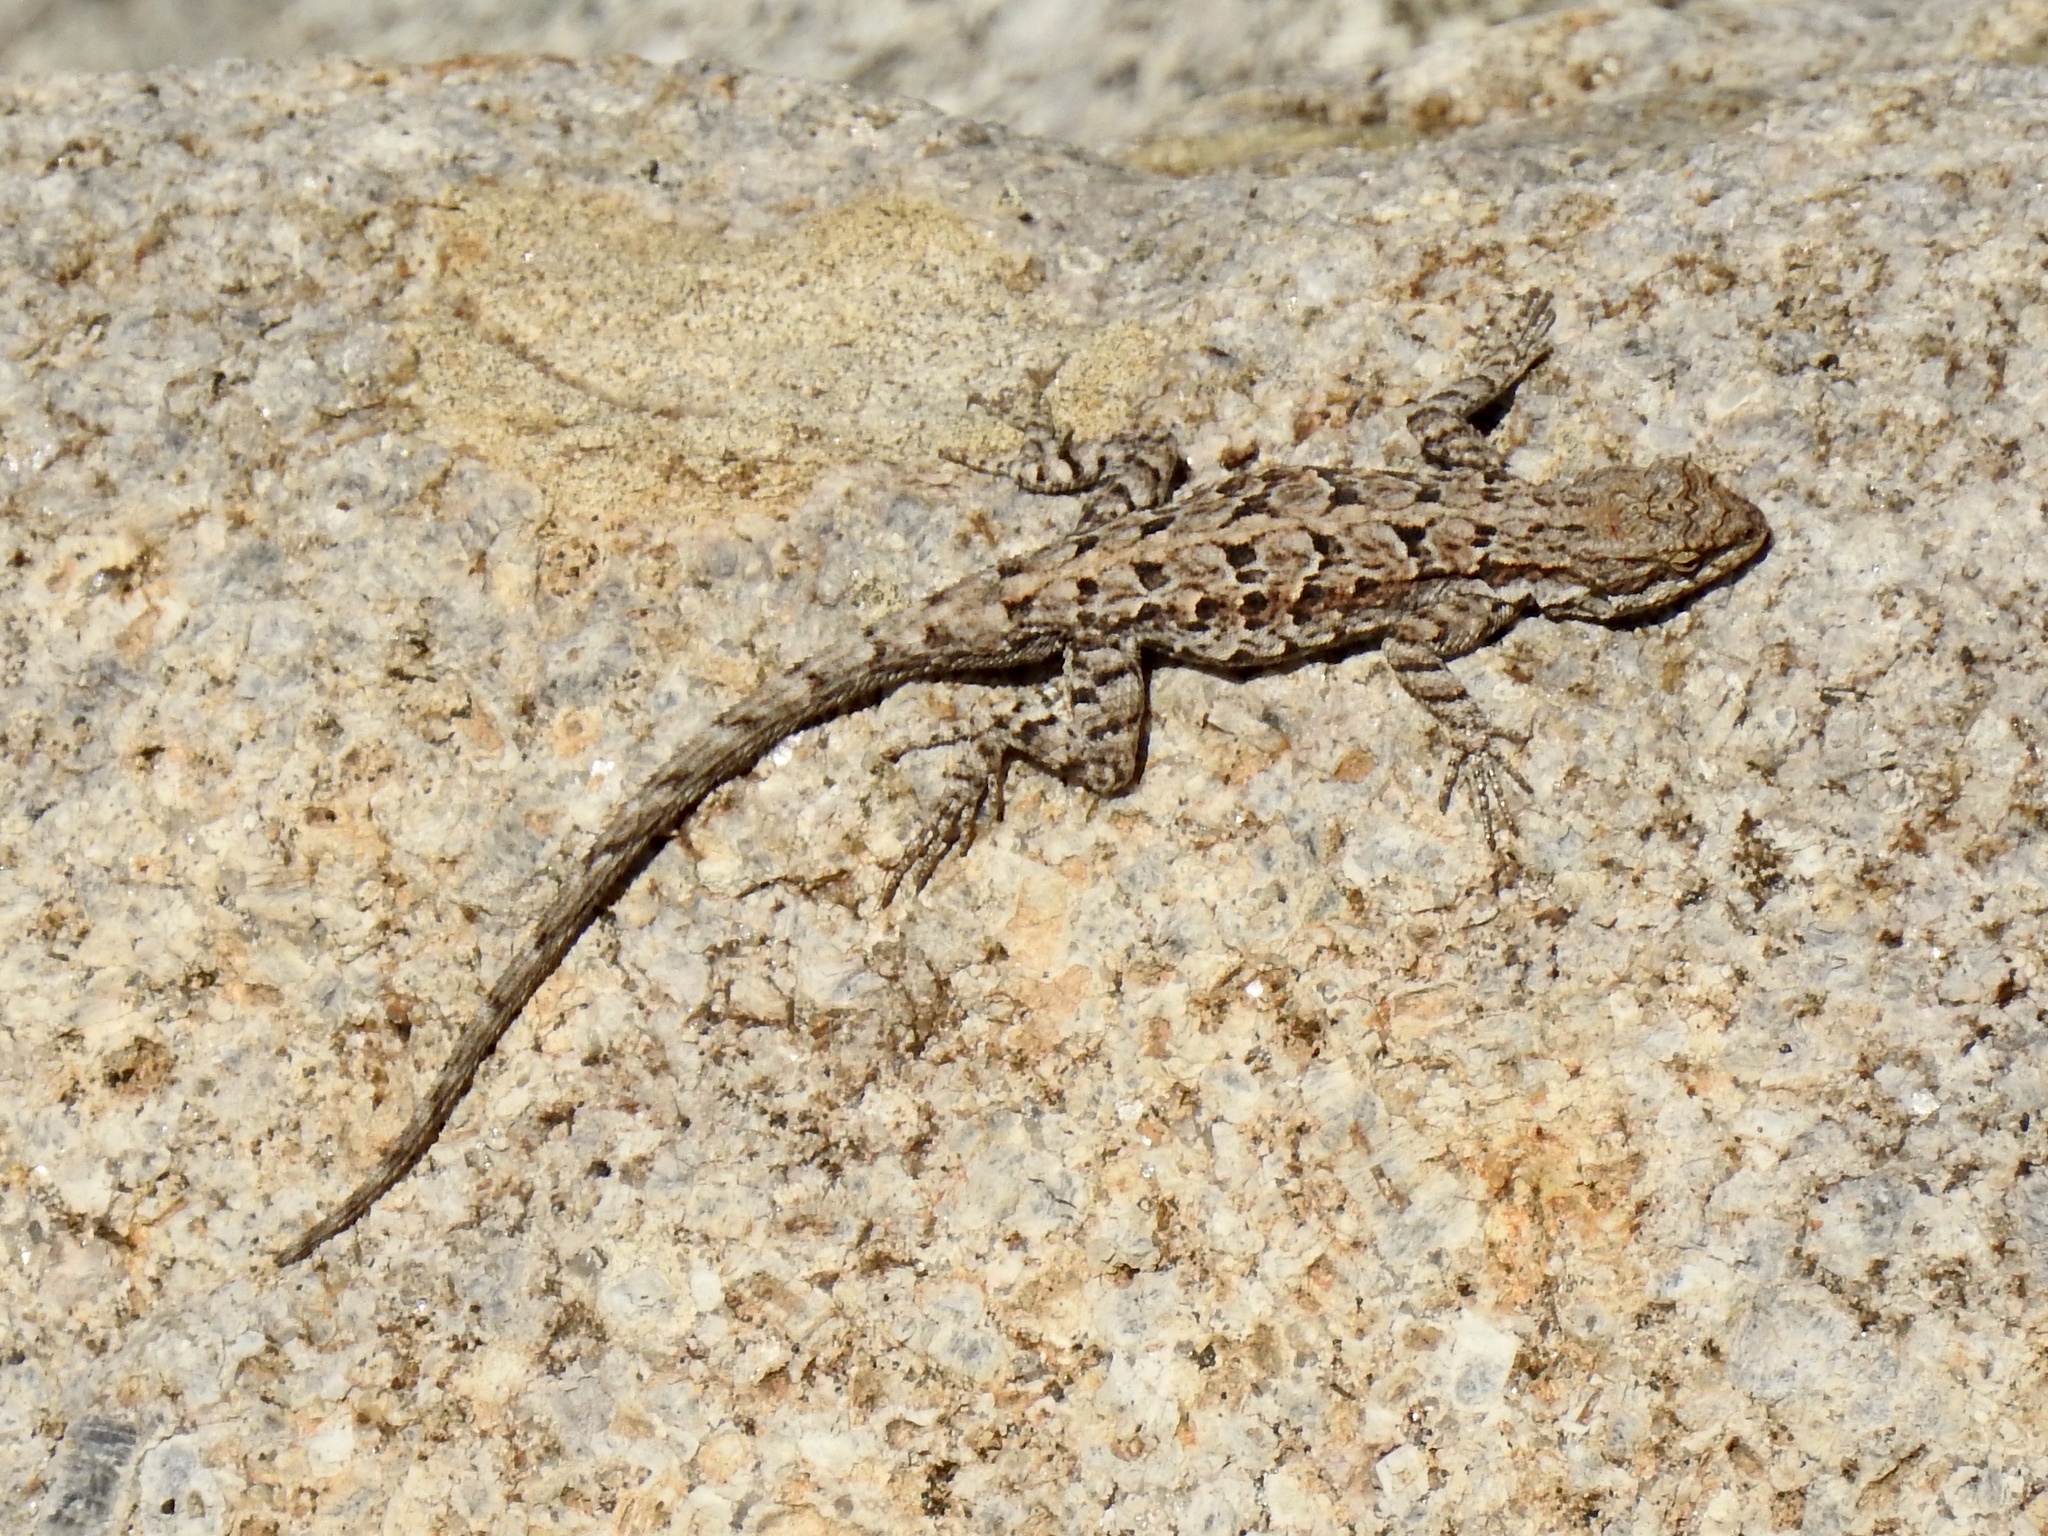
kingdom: Animalia
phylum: Chordata
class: Squamata
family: Phrynosomatidae
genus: Urosaurus
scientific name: Urosaurus ornatus
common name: Ornate tree lizard
